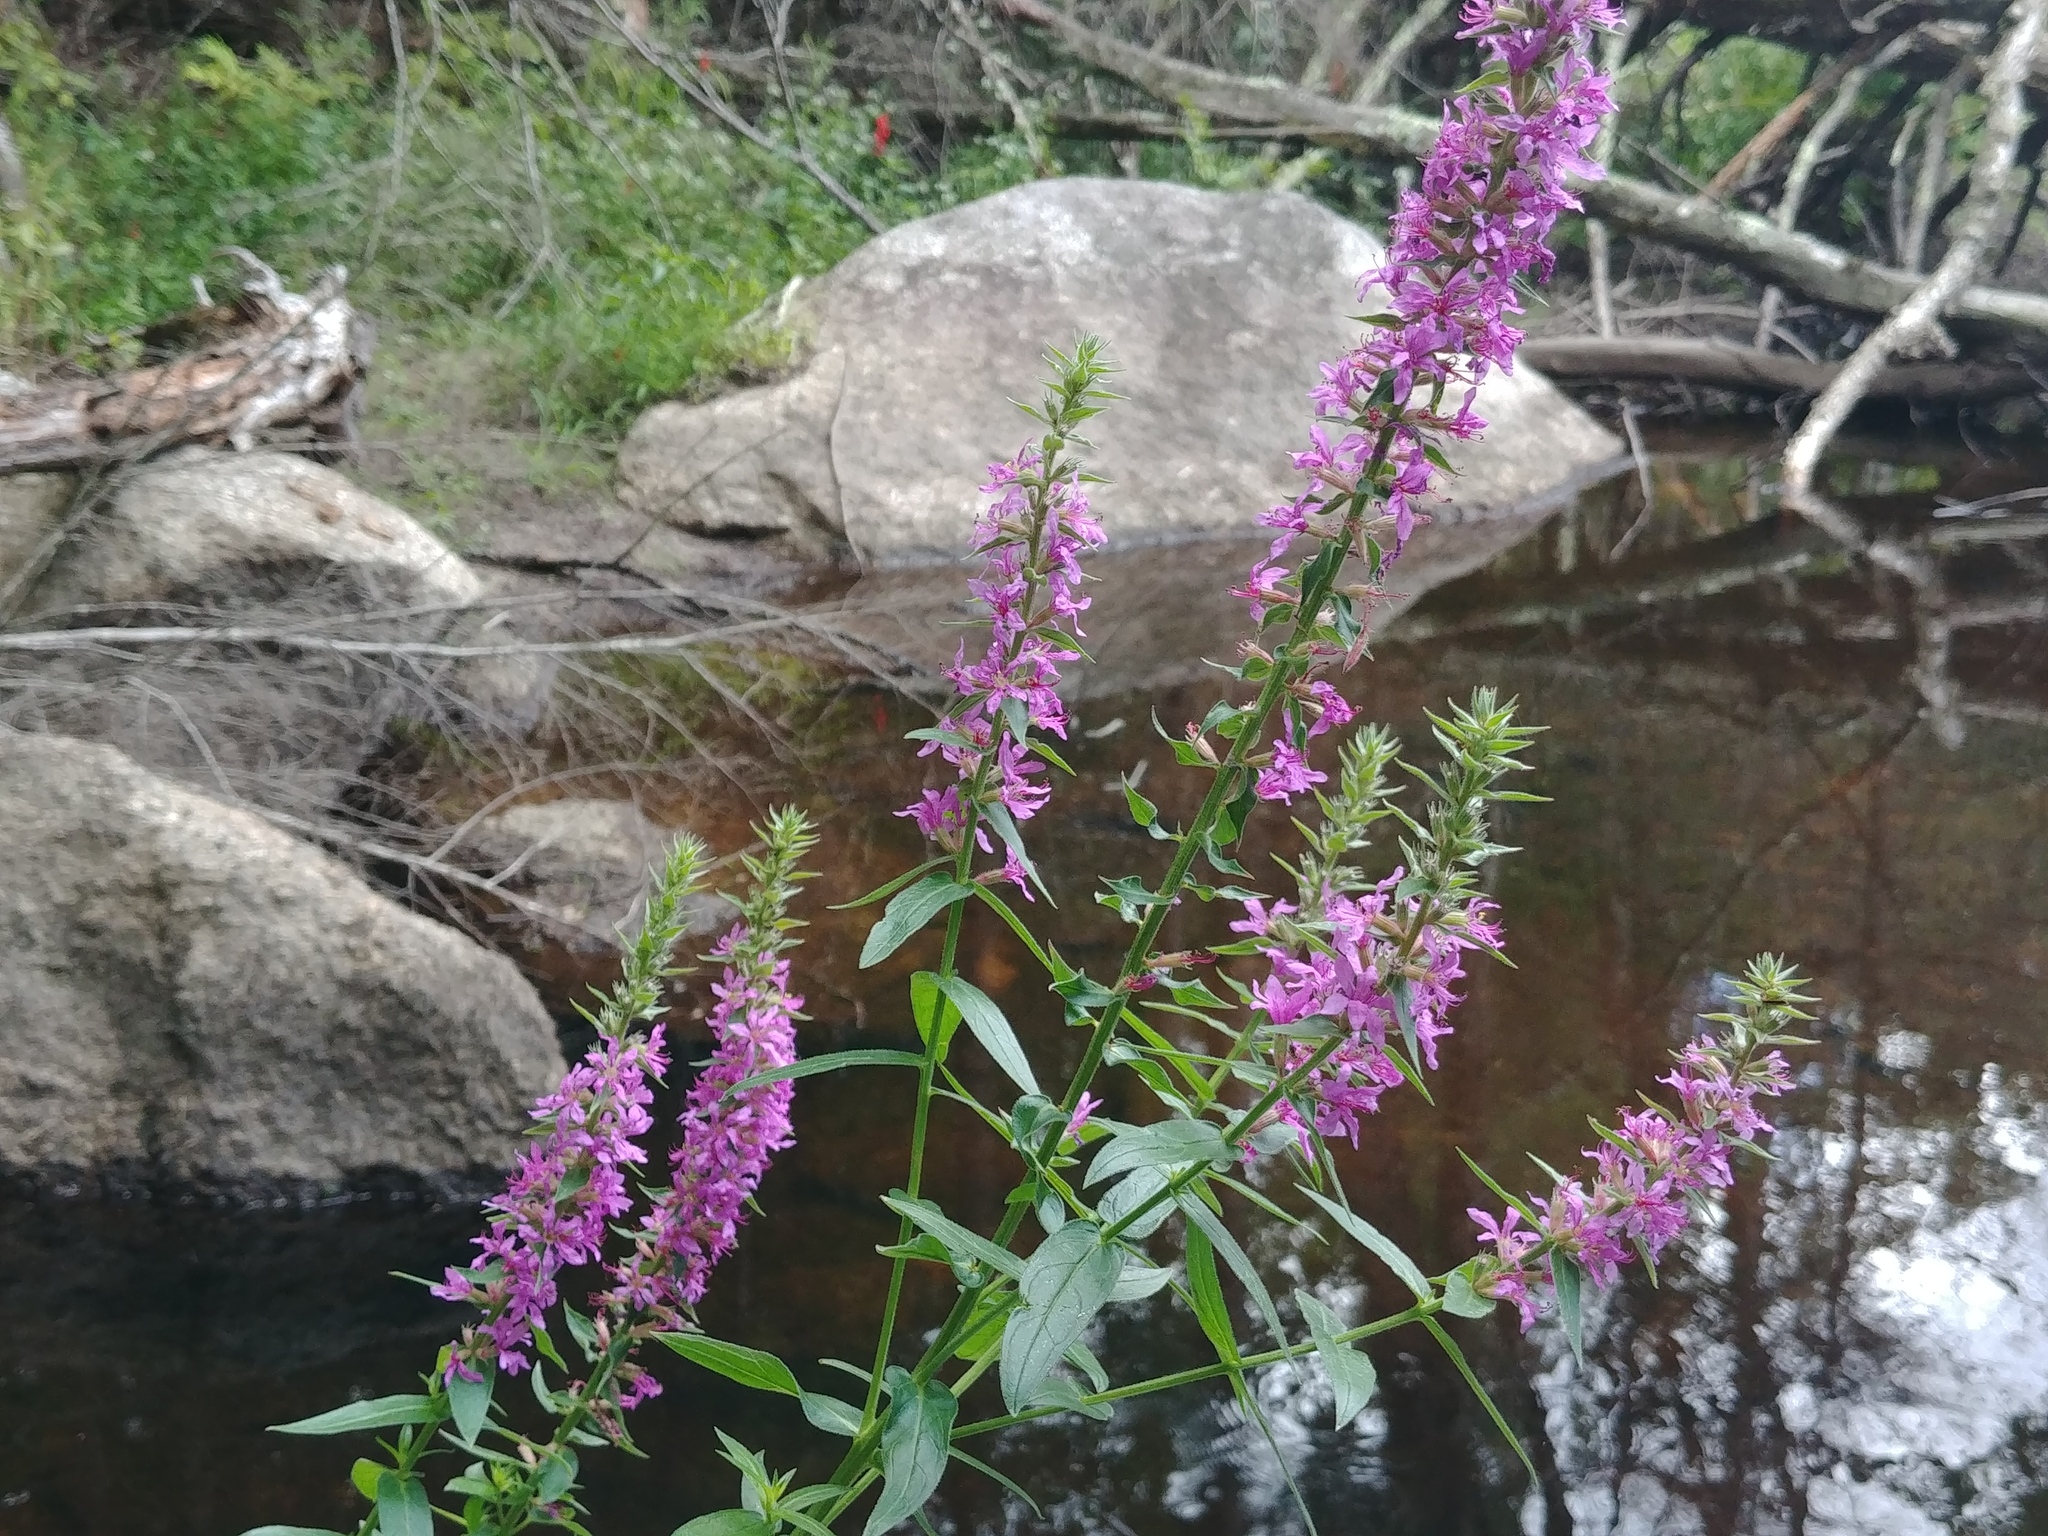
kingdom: Plantae
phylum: Tracheophyta
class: Magnoliopsida
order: Myrtales
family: Lythraceae
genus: Lythrum
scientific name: Lythrum salicaria
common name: Purple loosestrife
